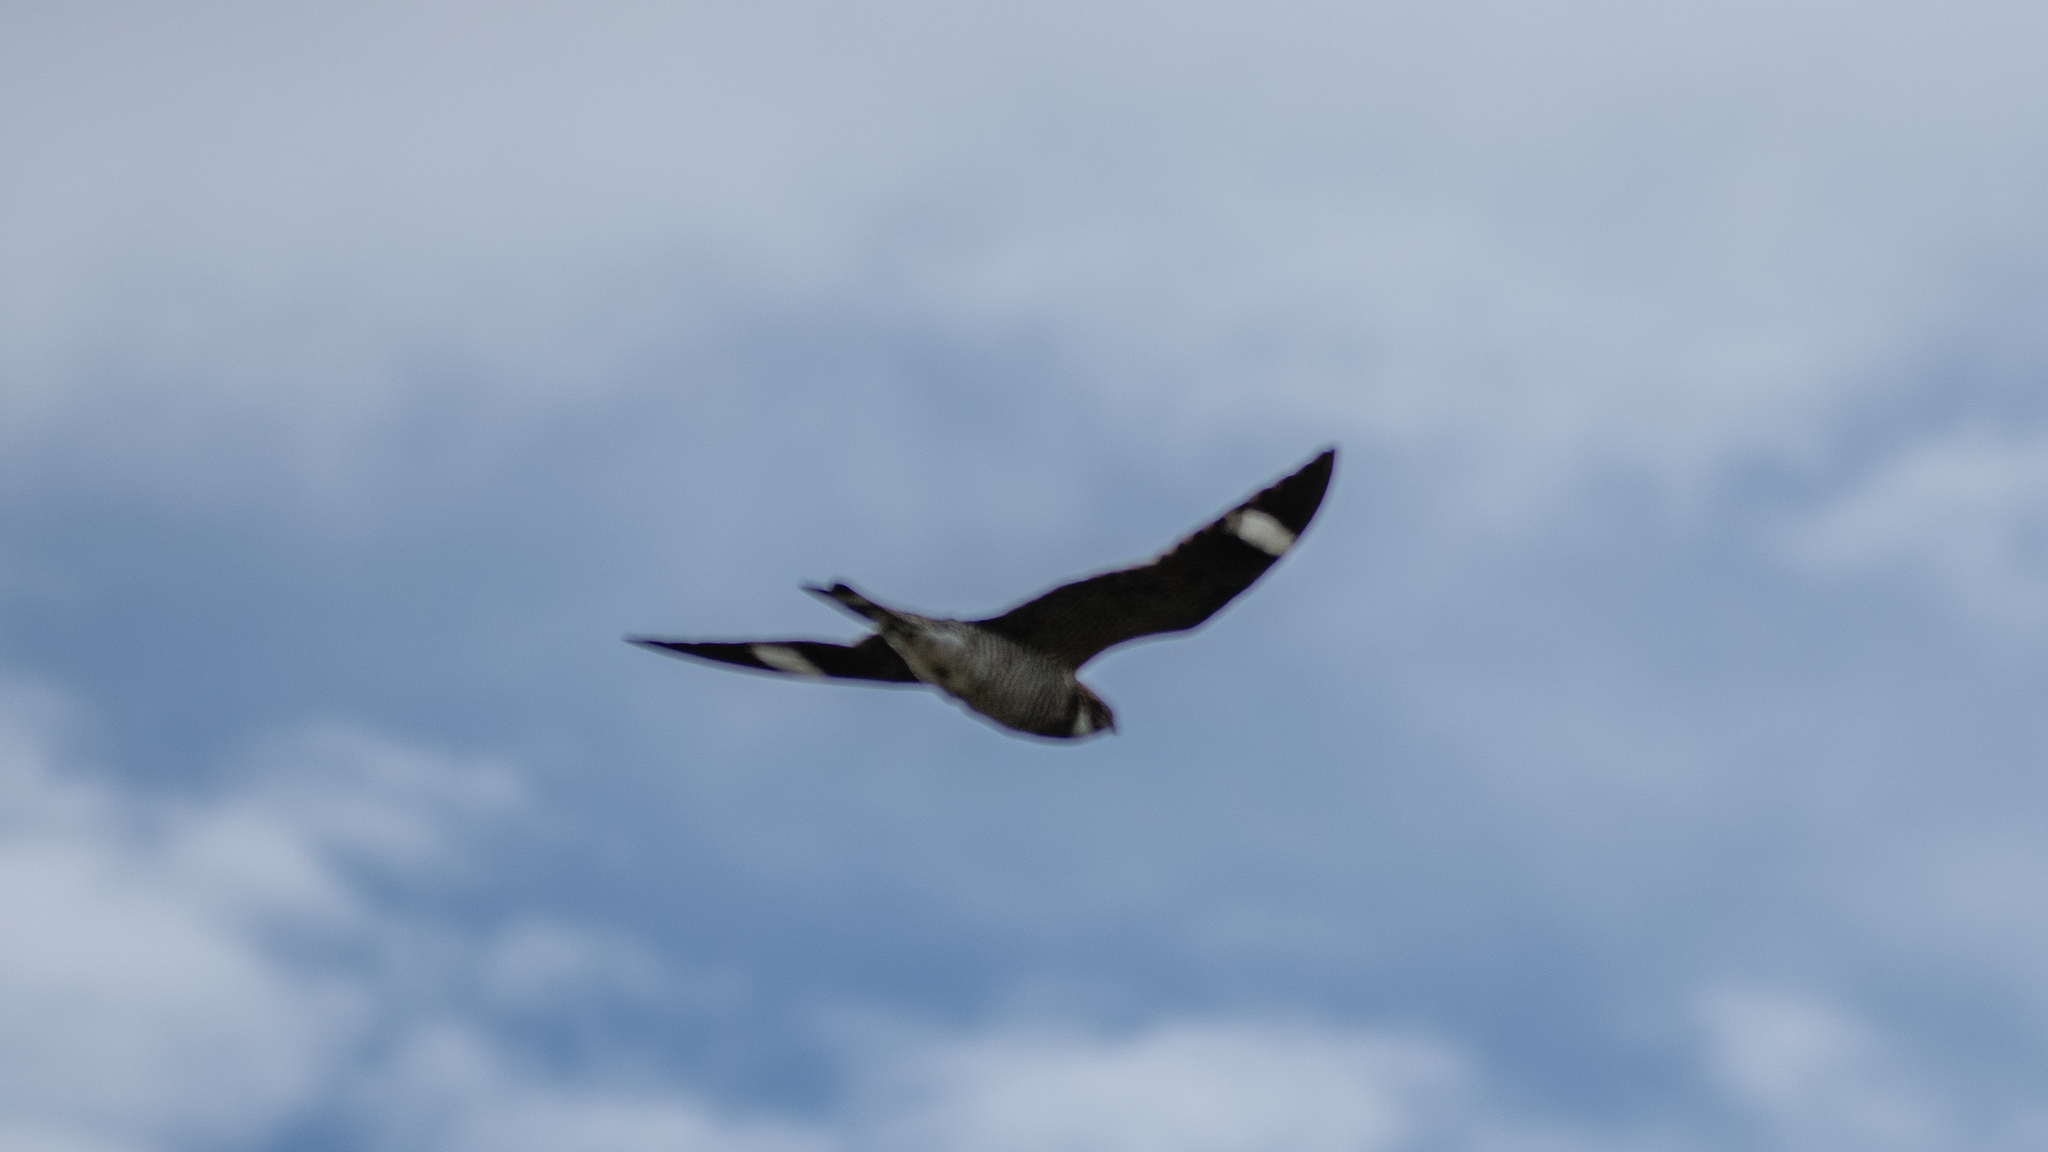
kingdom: Animalia
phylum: Chordata
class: Aves
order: Caprimulgiformes
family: Caprimulgidae
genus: Chordeiles
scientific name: Chordeiles minor
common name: Common nighthawk
